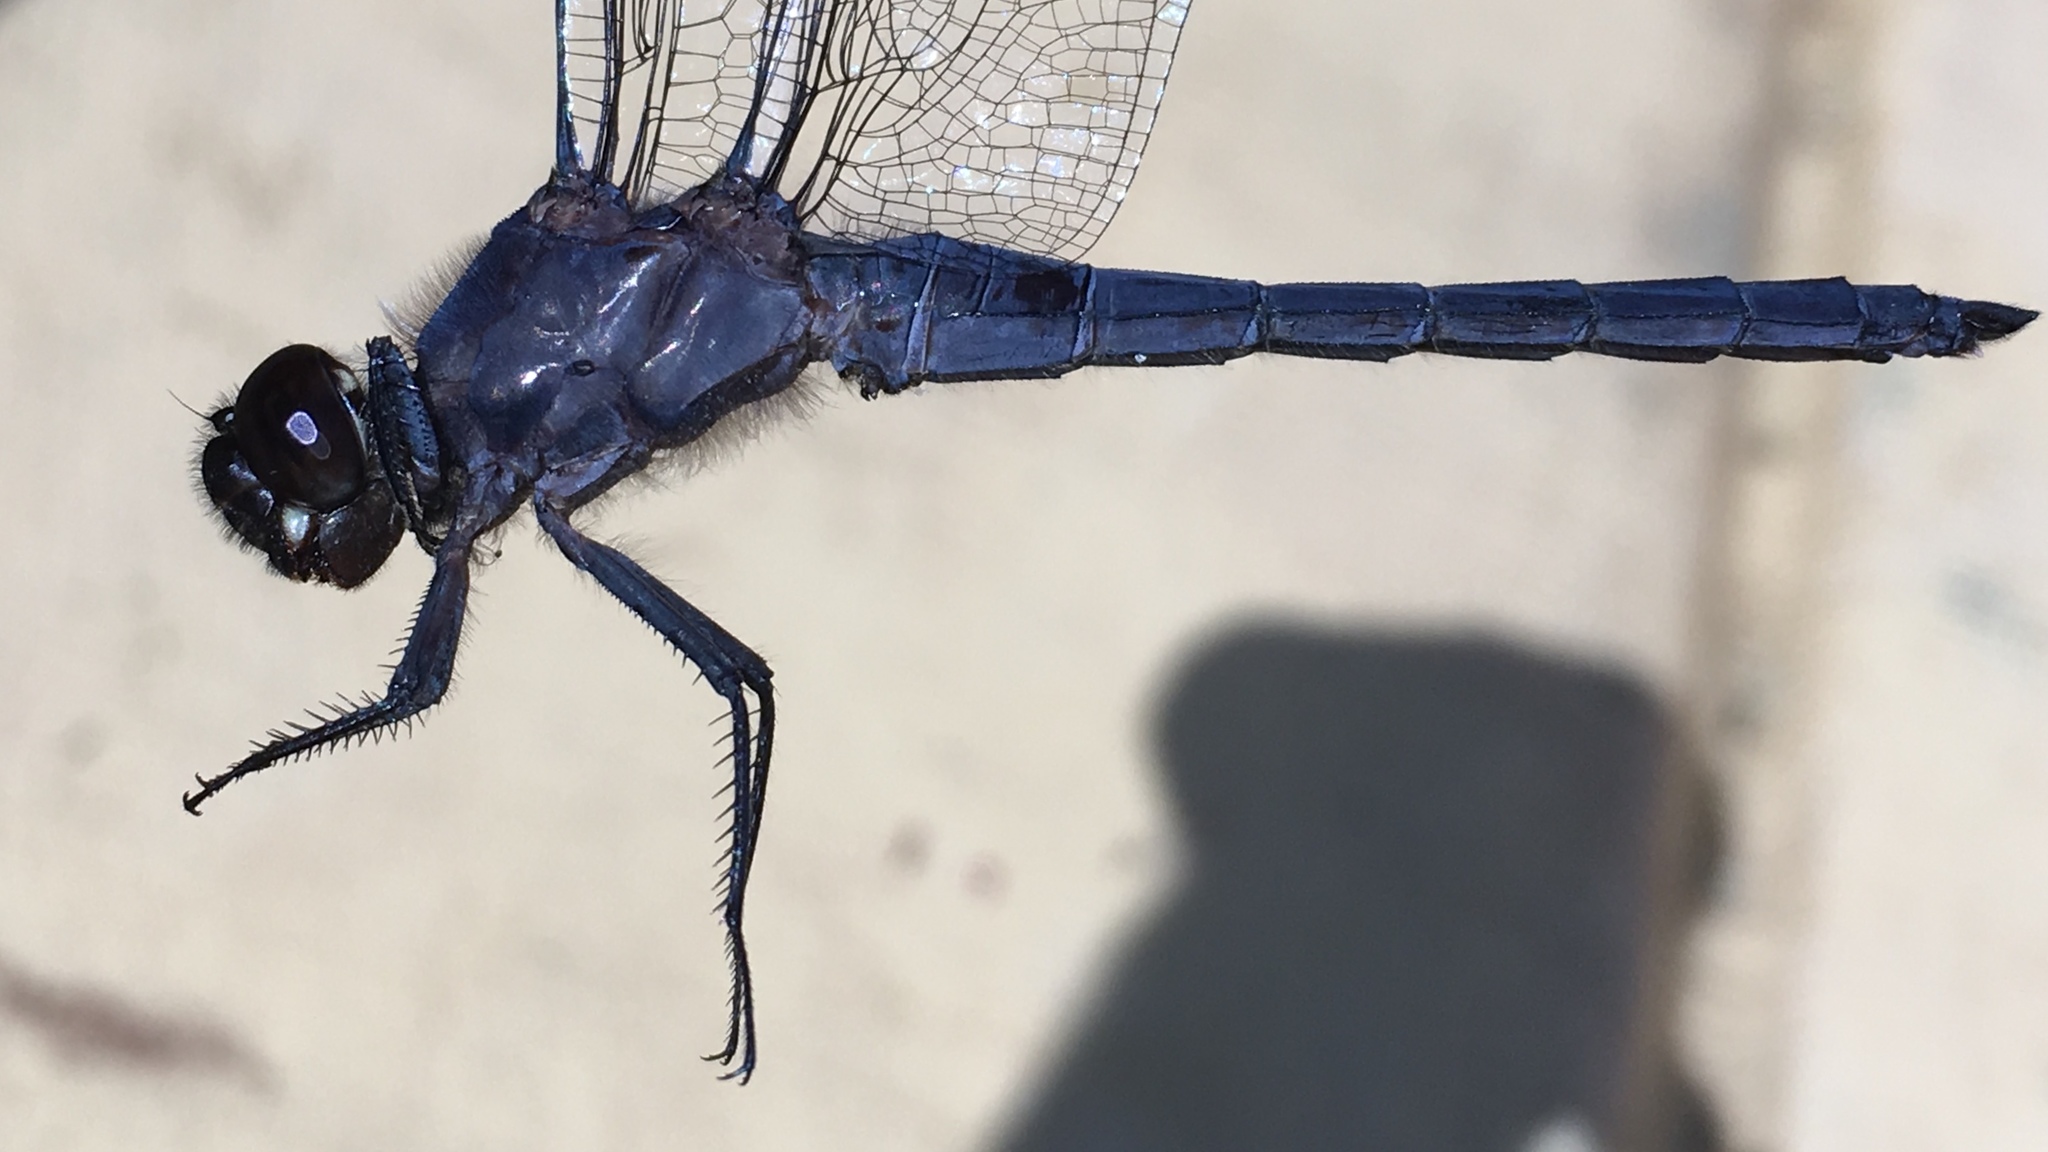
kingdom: Animalia
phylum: Arthropoda
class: Insecta
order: Odonata
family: Libellulidae
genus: Libellula
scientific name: Libellula incesta
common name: Slaty skimmer
